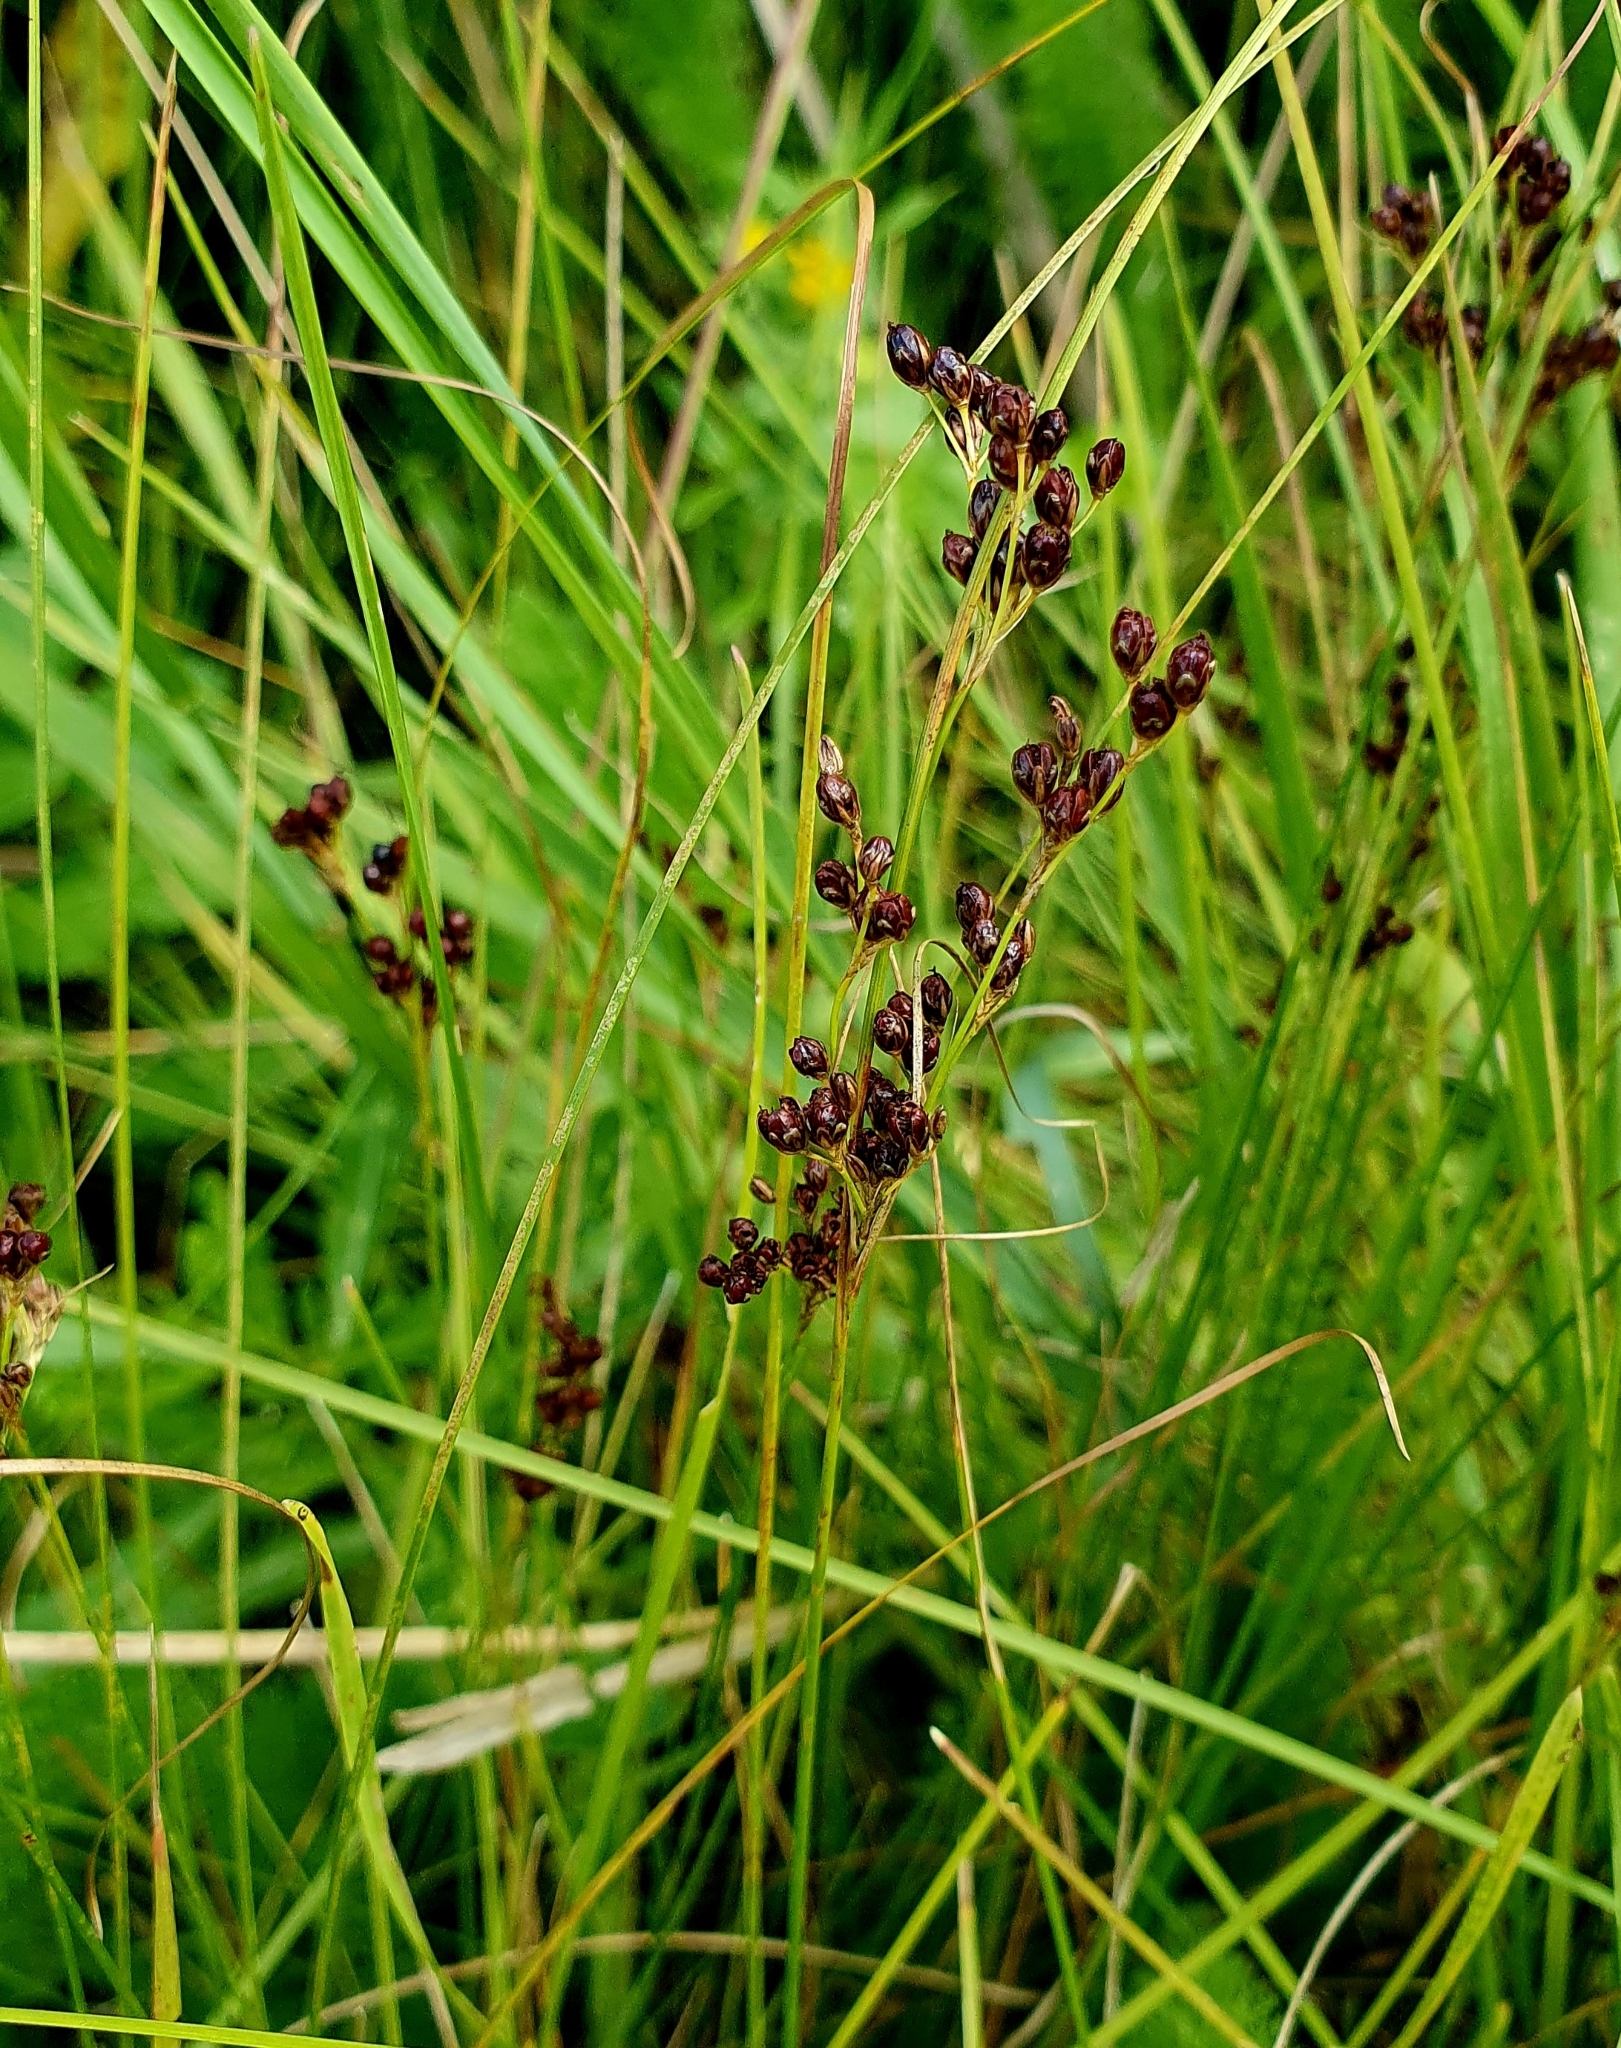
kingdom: Plantae
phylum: Tracheophyta
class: Liliopsida
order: Poales
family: Juncaceae
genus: Juncus
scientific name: Juncus compressus
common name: Round-fruited rush
